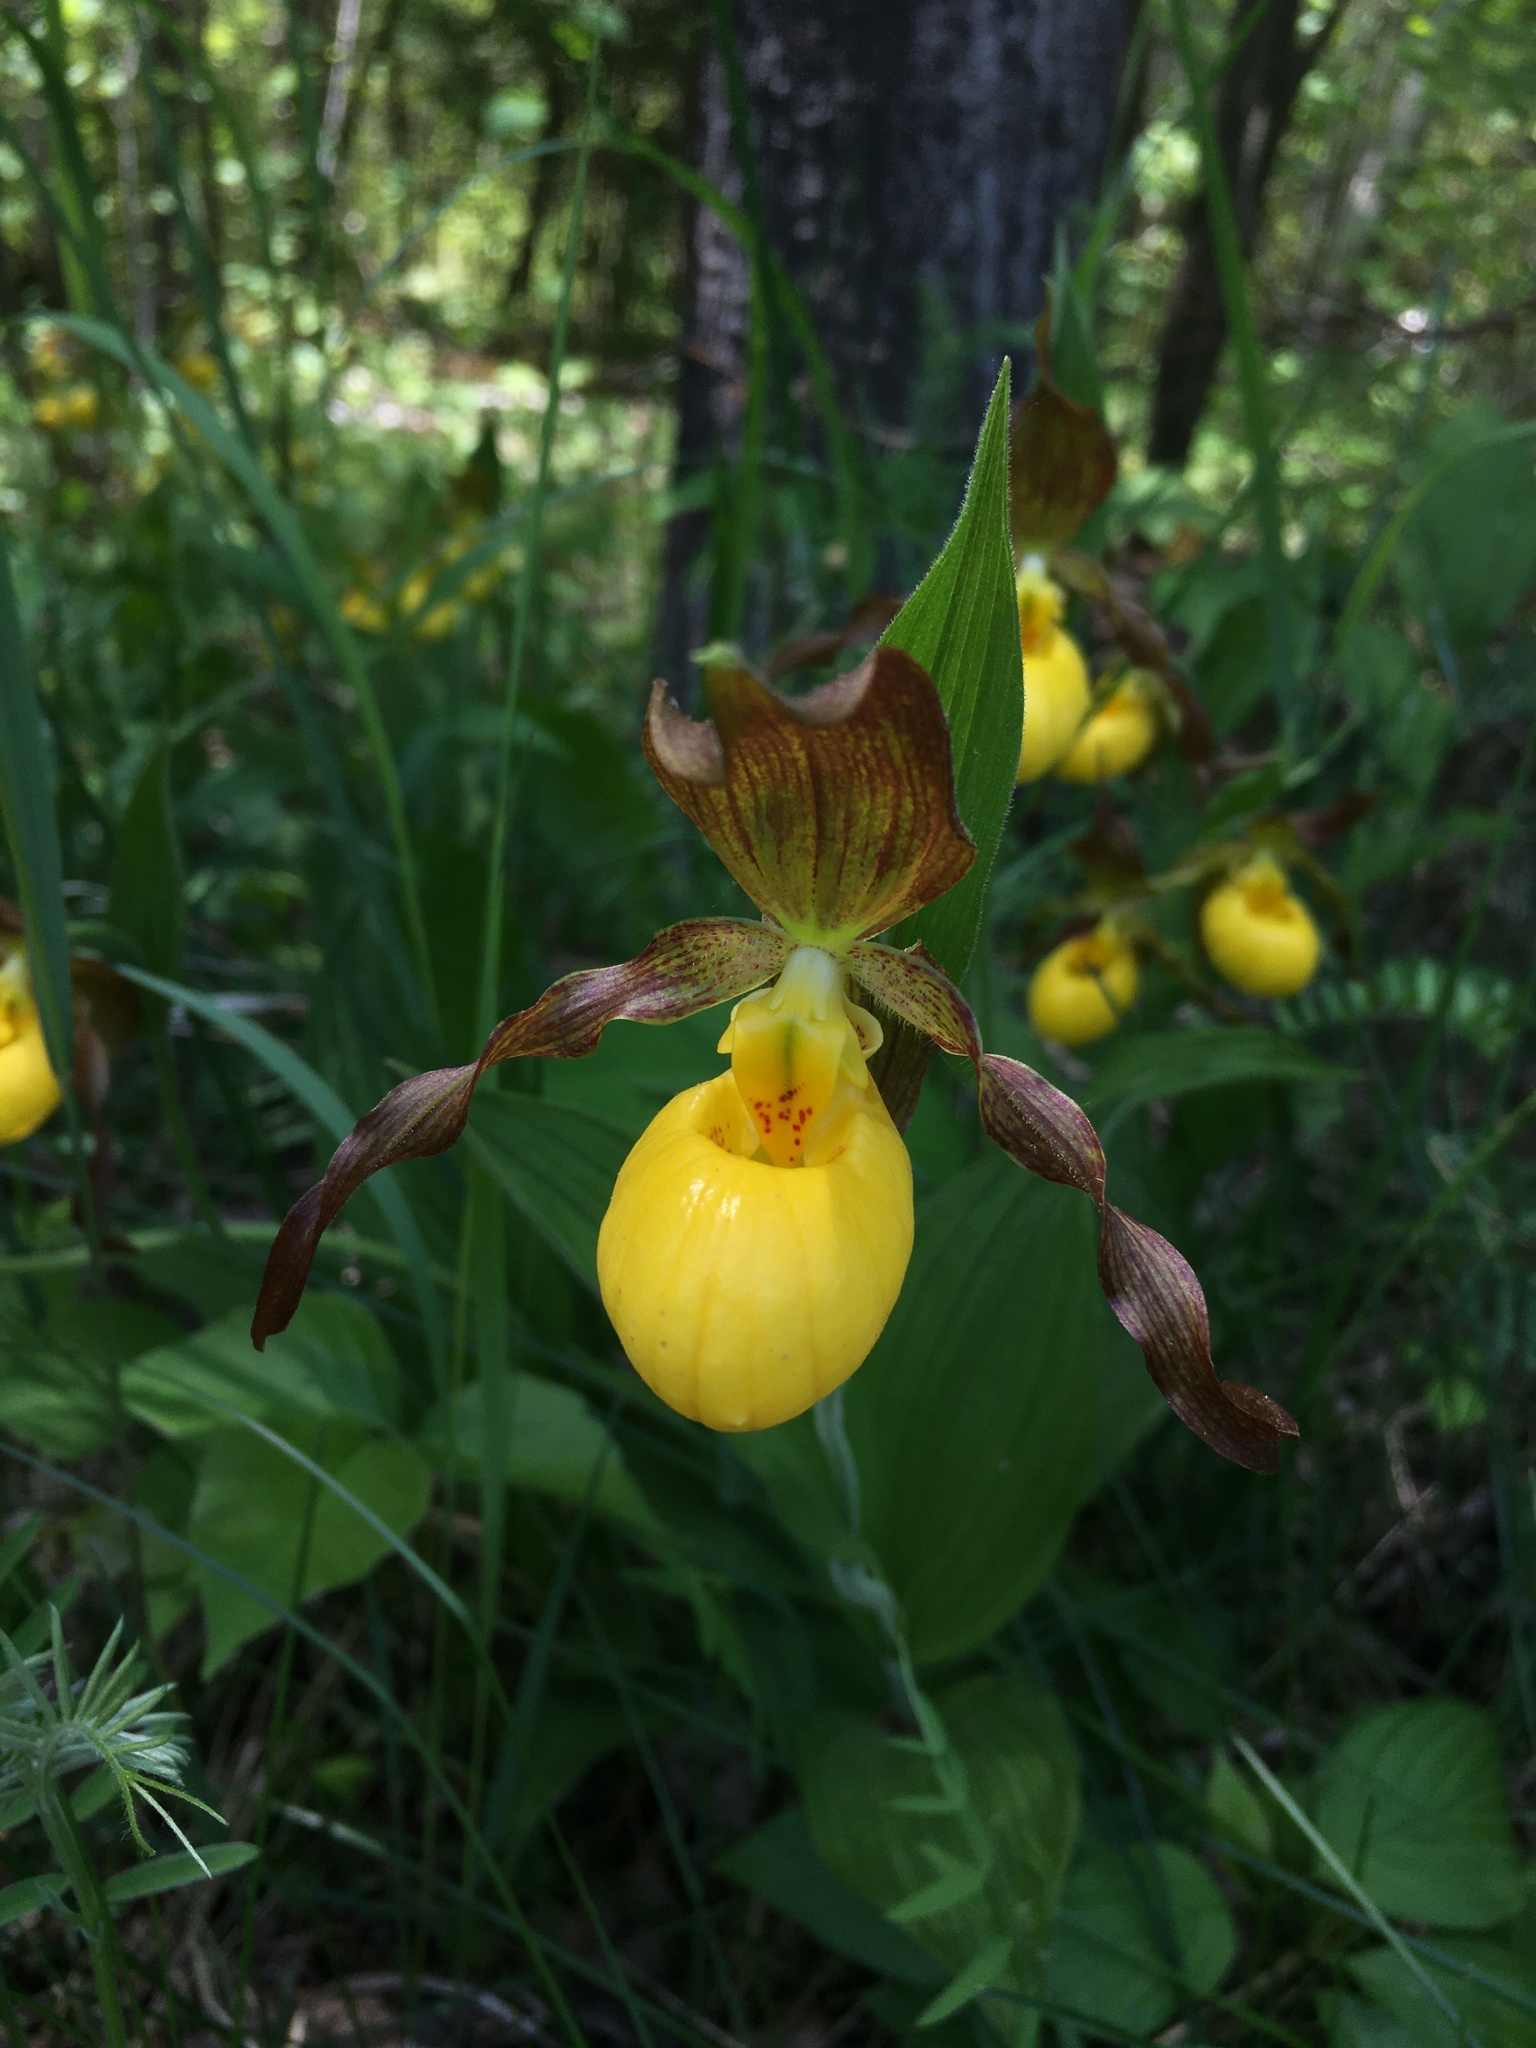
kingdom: Plantae
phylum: Tracheophyta
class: Liliopsida
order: Asparagales
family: Orchidaceae
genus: Cypripedium
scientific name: Cypripedium parviflorum
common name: American yellow lady's-slipper
